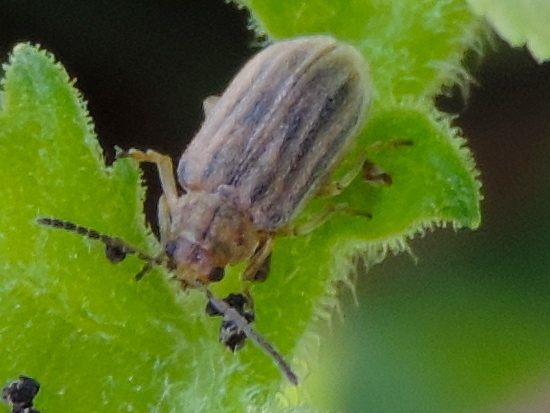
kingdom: Animalia
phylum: Arthropoda
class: Insecta
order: Coleoptera
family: Chrysomelidae
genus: Ophraella
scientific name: Ophraella communa
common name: Ragweed leaf beetle
